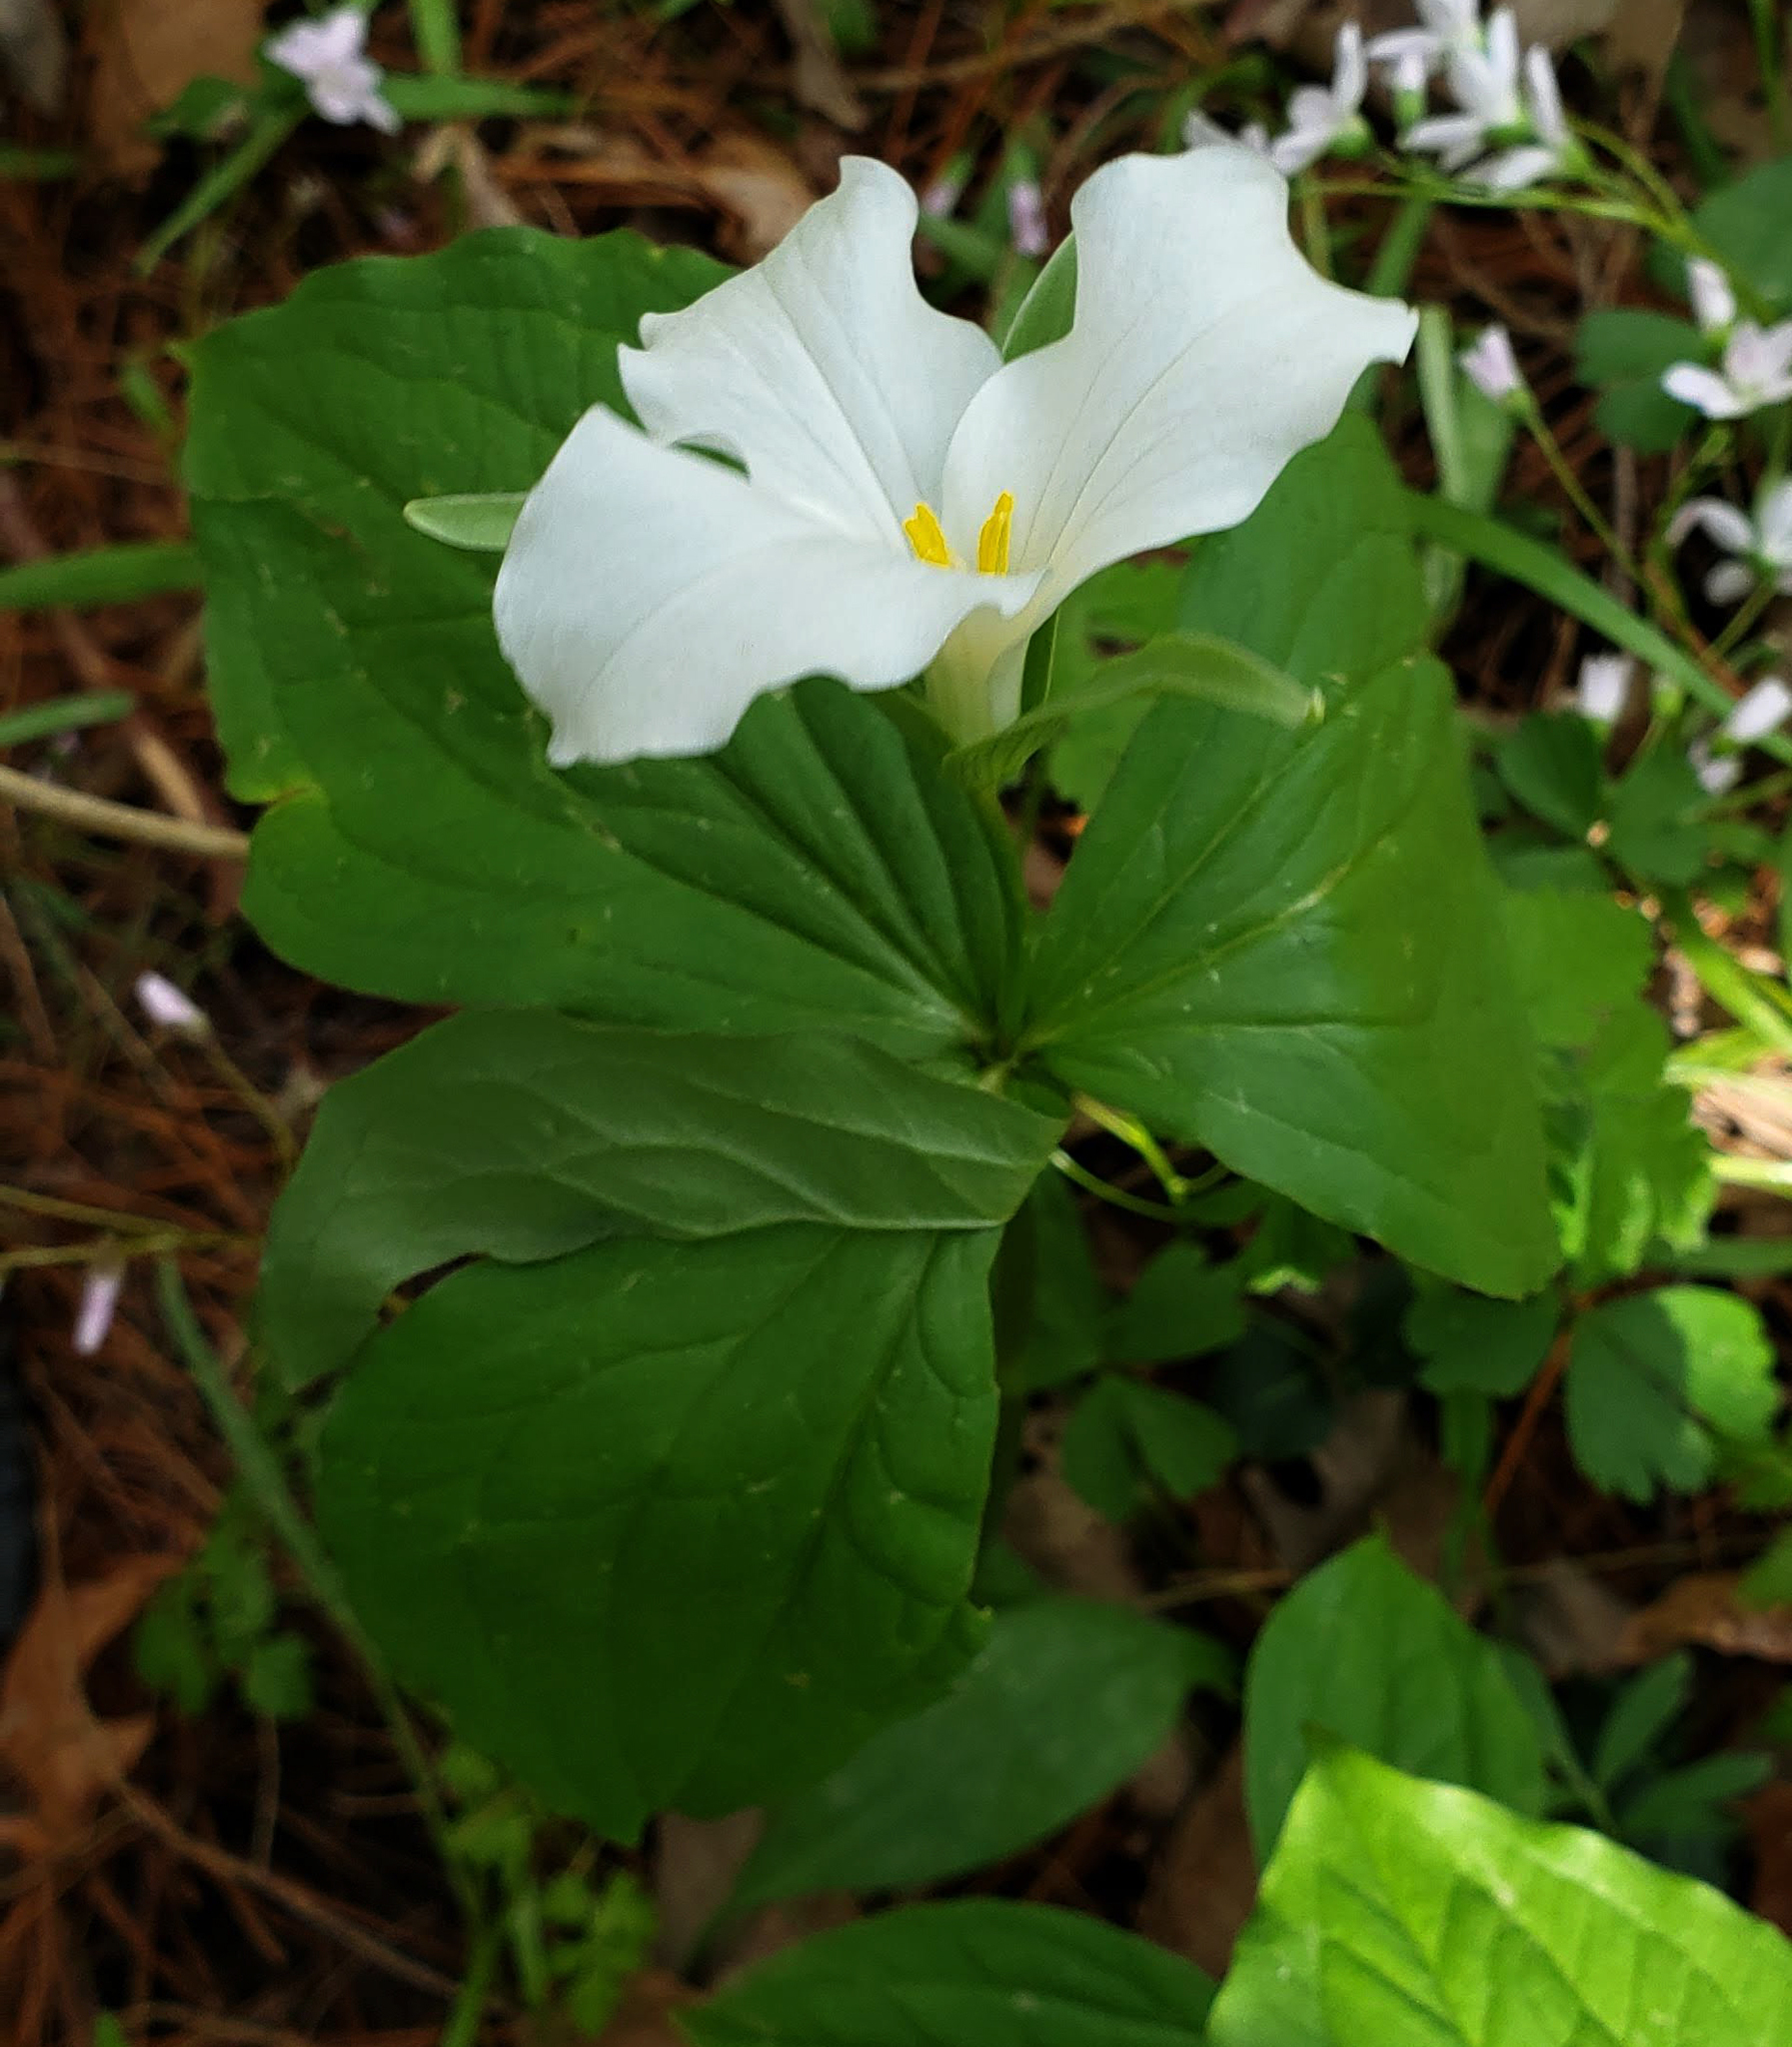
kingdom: Plantae
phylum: Tracheophyta
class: Liliopsida
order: Liliales
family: Melanthiaceae
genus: Trillium
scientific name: Trillium grandiflorum
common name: Great white trillium
